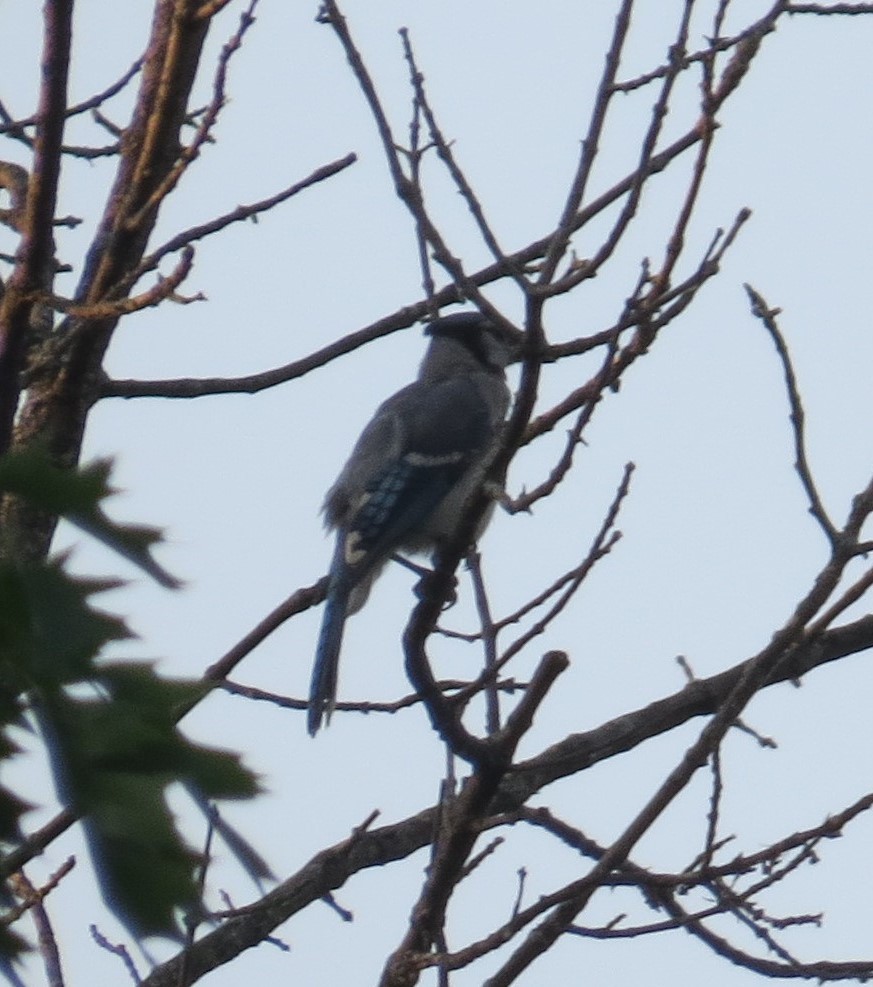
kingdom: Animalia
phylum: Chordata
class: Aves
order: Passeriformes
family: Corvidae
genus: Cyanocitta
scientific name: Cyanocitta cristata
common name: Blue jay
